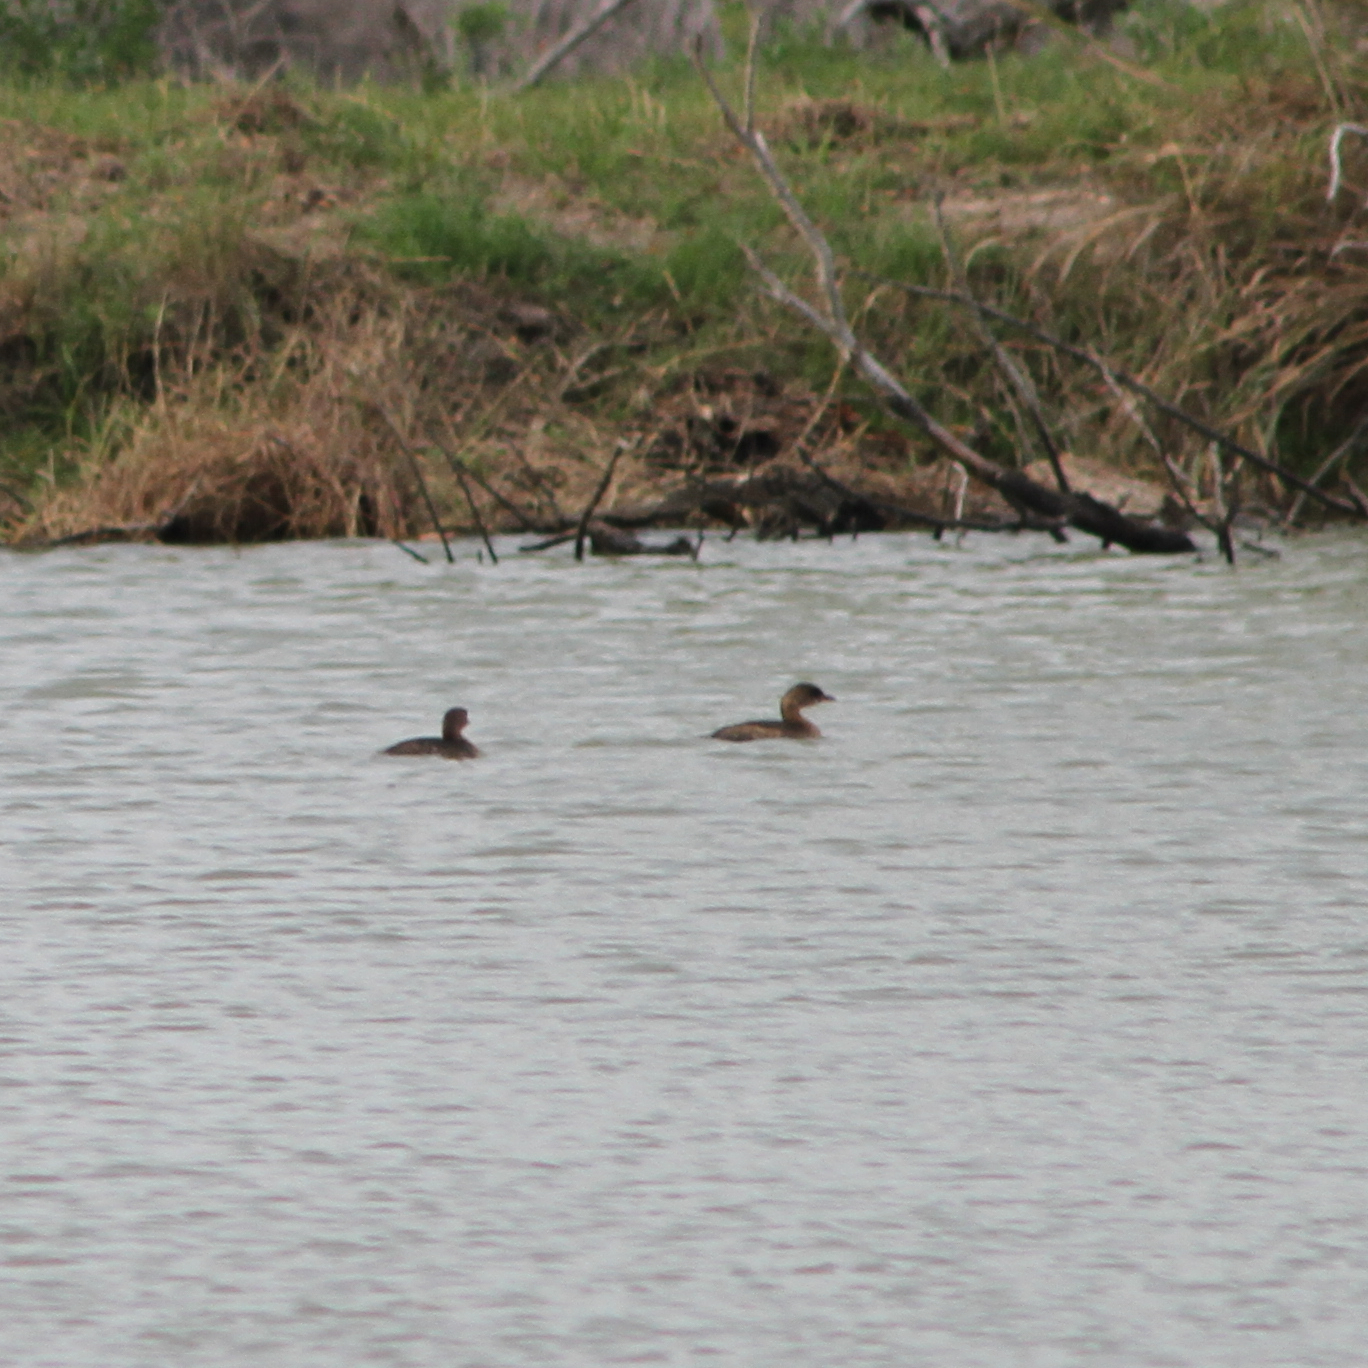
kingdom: Animalia
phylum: Chordata
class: Aves
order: Podicipediformes
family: Podicipedidae
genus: Podilymbus
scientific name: Podilymbus podiceps
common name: Pied-billed grebe
